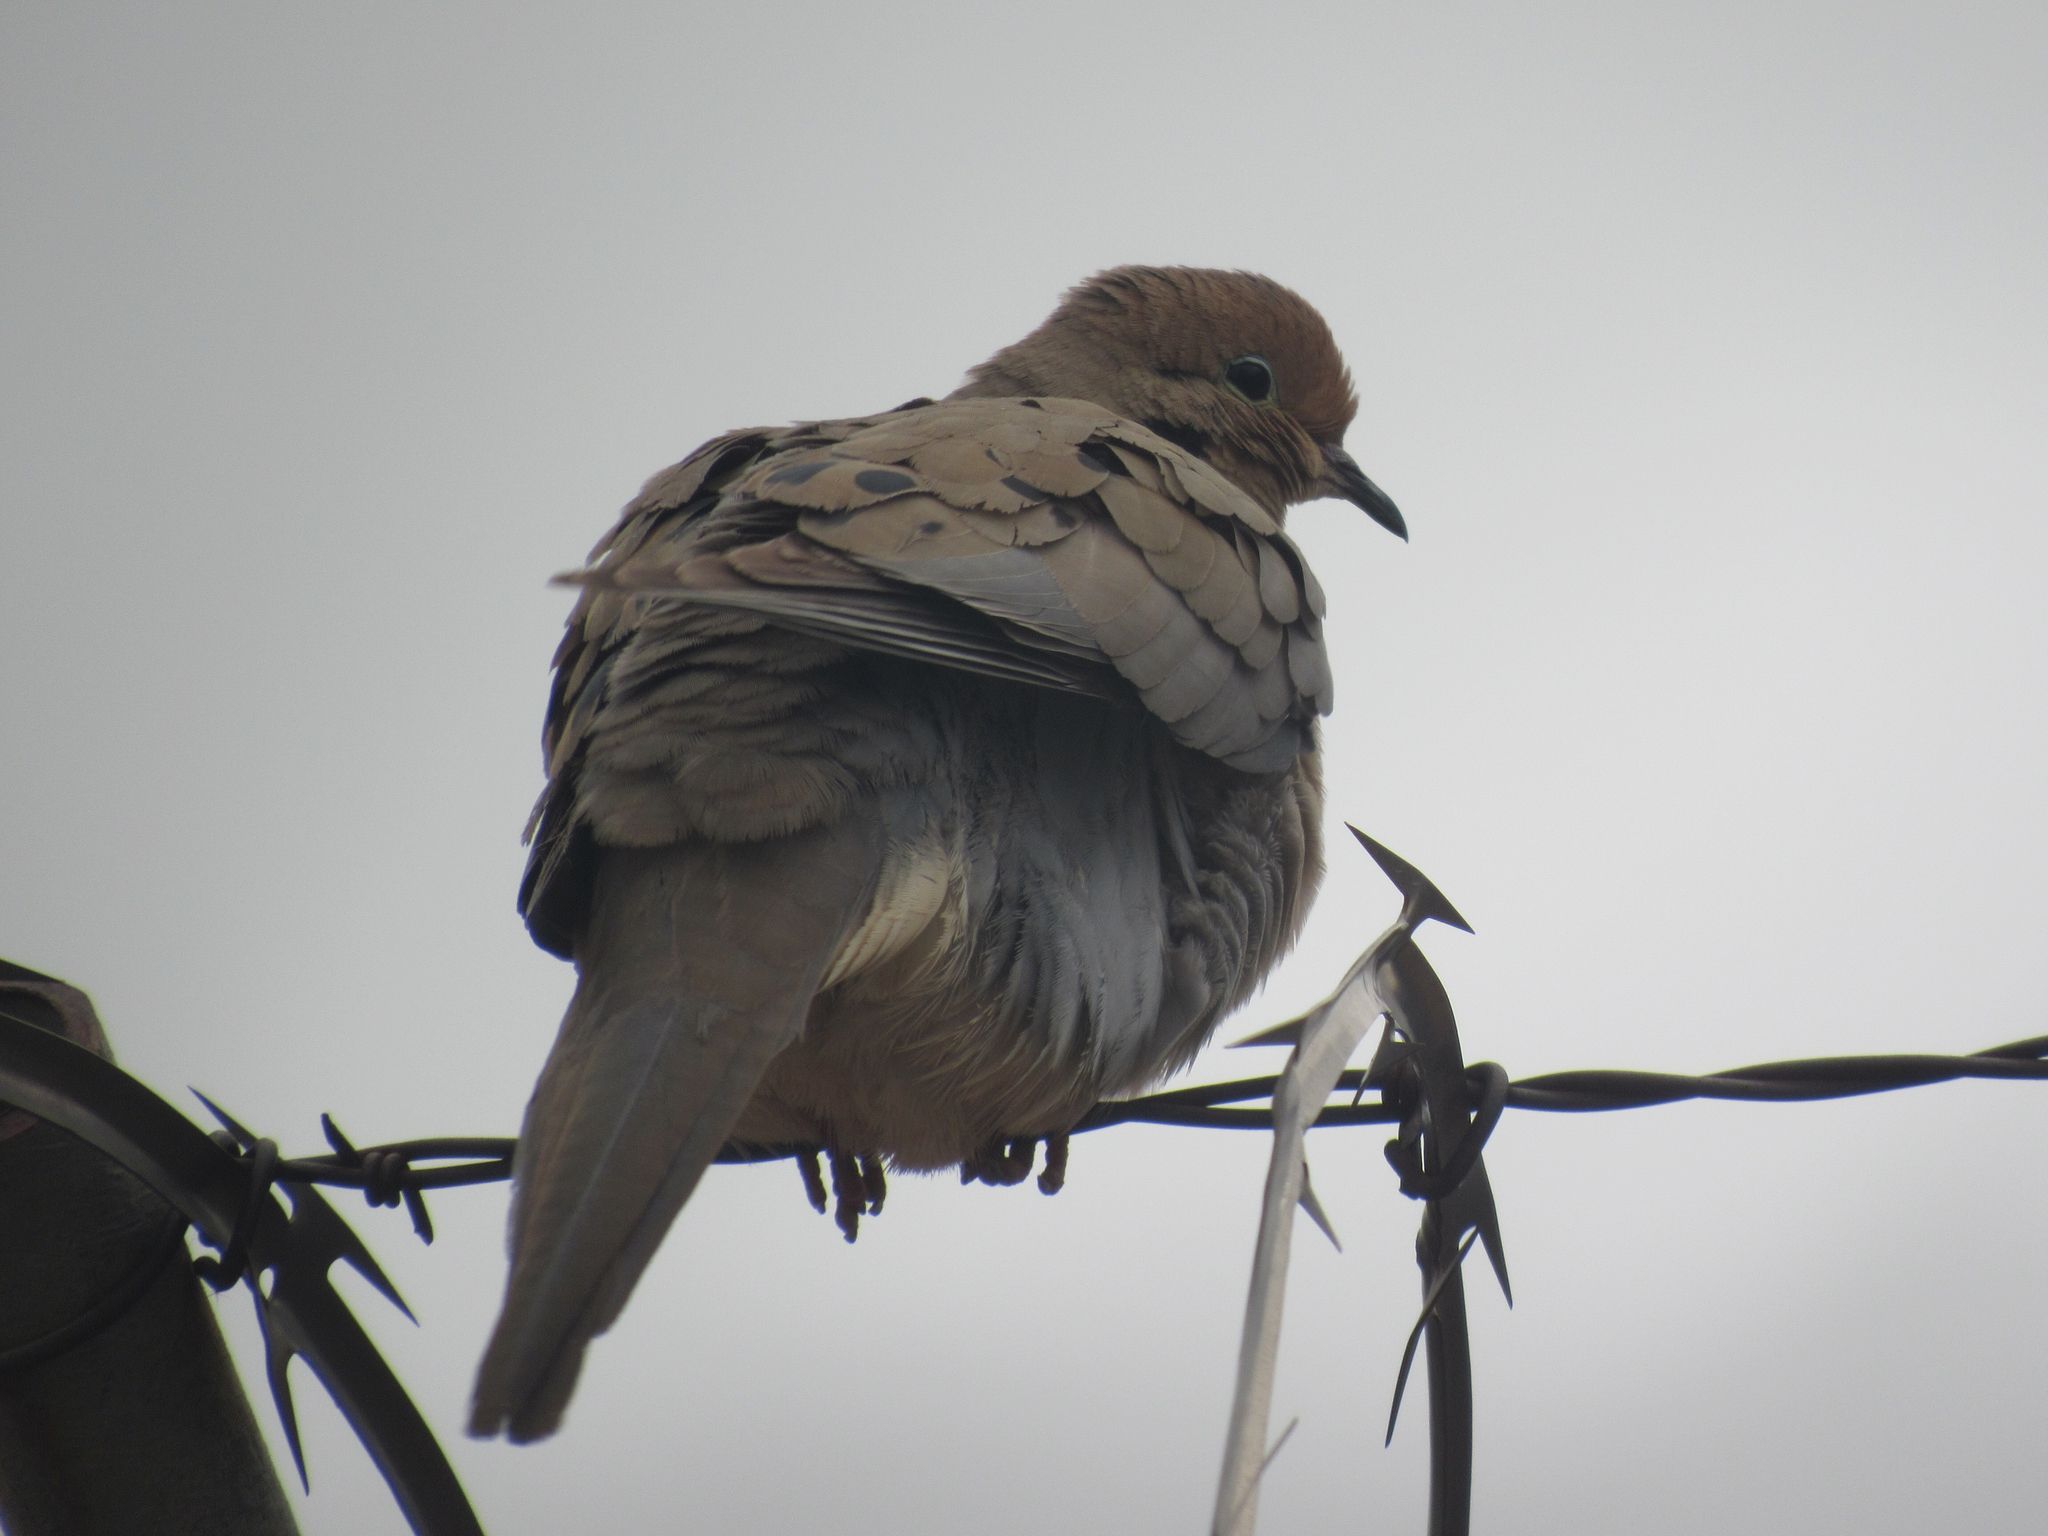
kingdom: Animalia
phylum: Chordata
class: Aves
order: Columbiformes
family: Columbidae
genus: Zenaida
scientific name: Zenaida macroura
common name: Mourning dove
